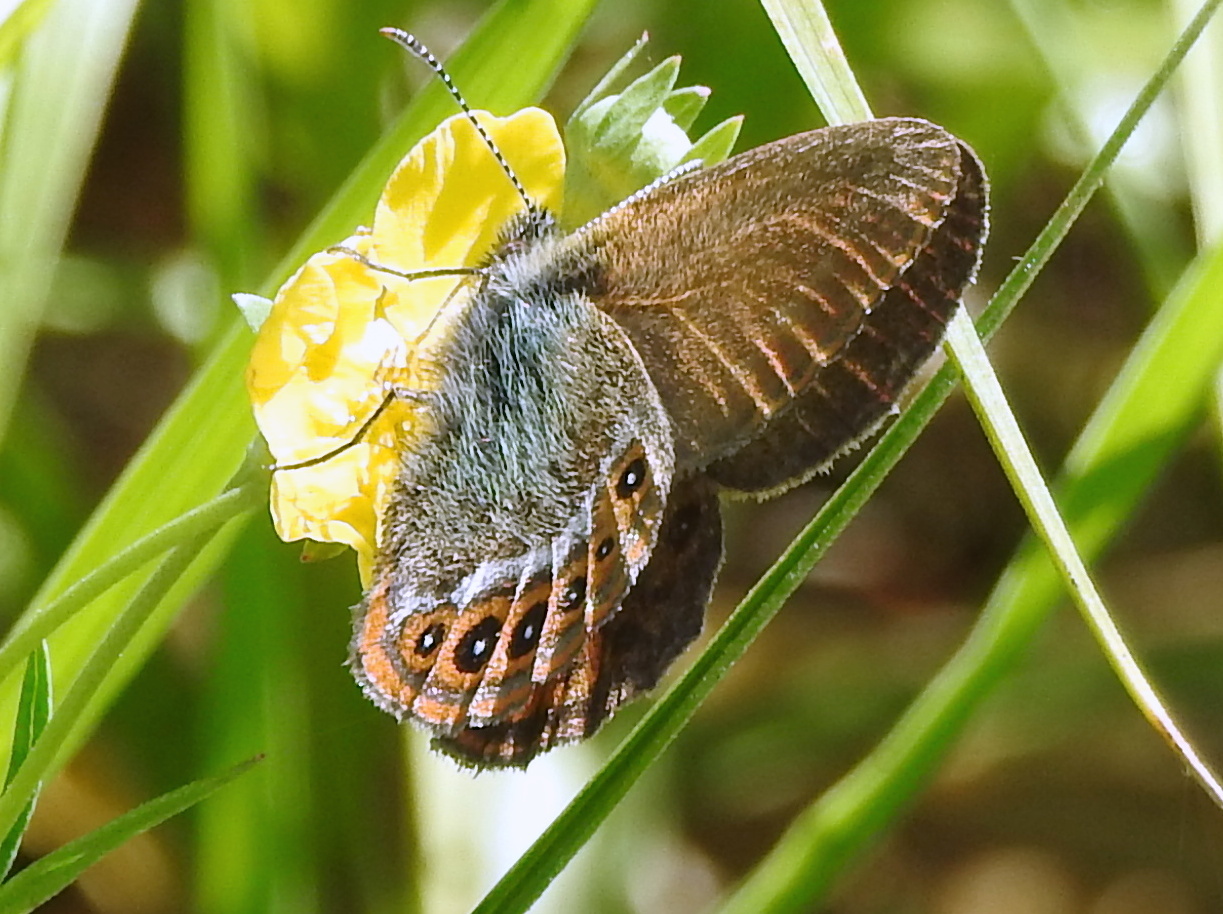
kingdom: Animalia
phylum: Arthropoda
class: Insecta
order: Lepidoptera
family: Nymphalidae
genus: Coenonympha
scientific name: Coenonympha hero
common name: Scarce heath
